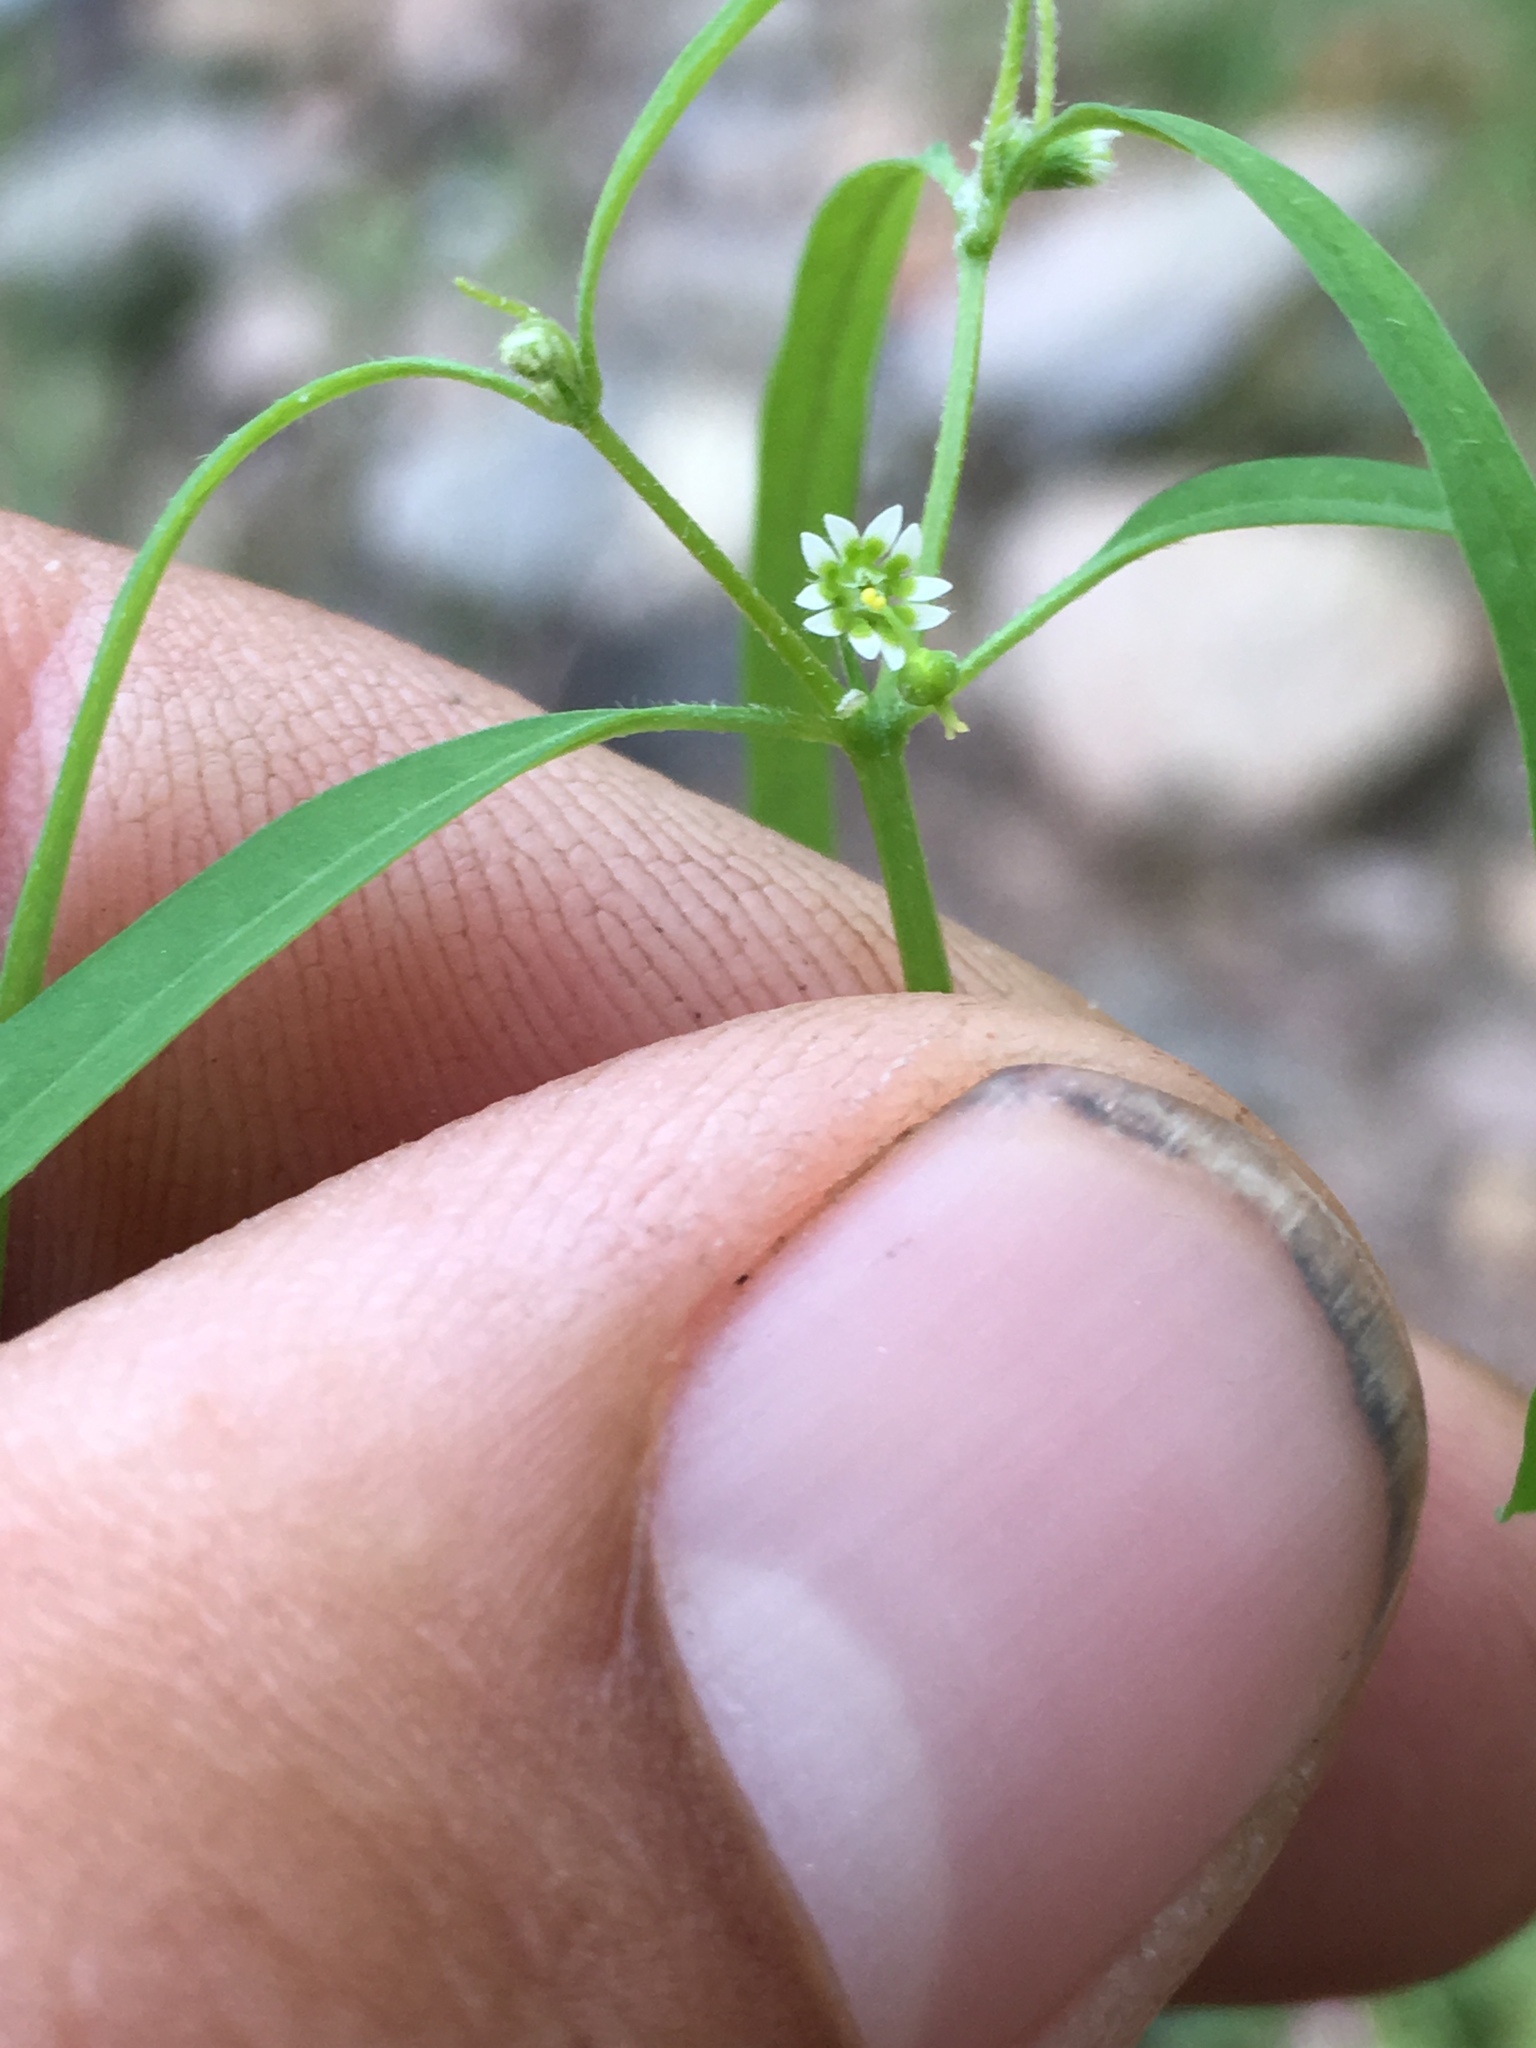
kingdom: Plantae
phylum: Tracheophyta
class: Magnoliopsida
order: Malpighiales
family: Euphorbiaceae
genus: Euphorbia
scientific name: Euphorbia bilobata
